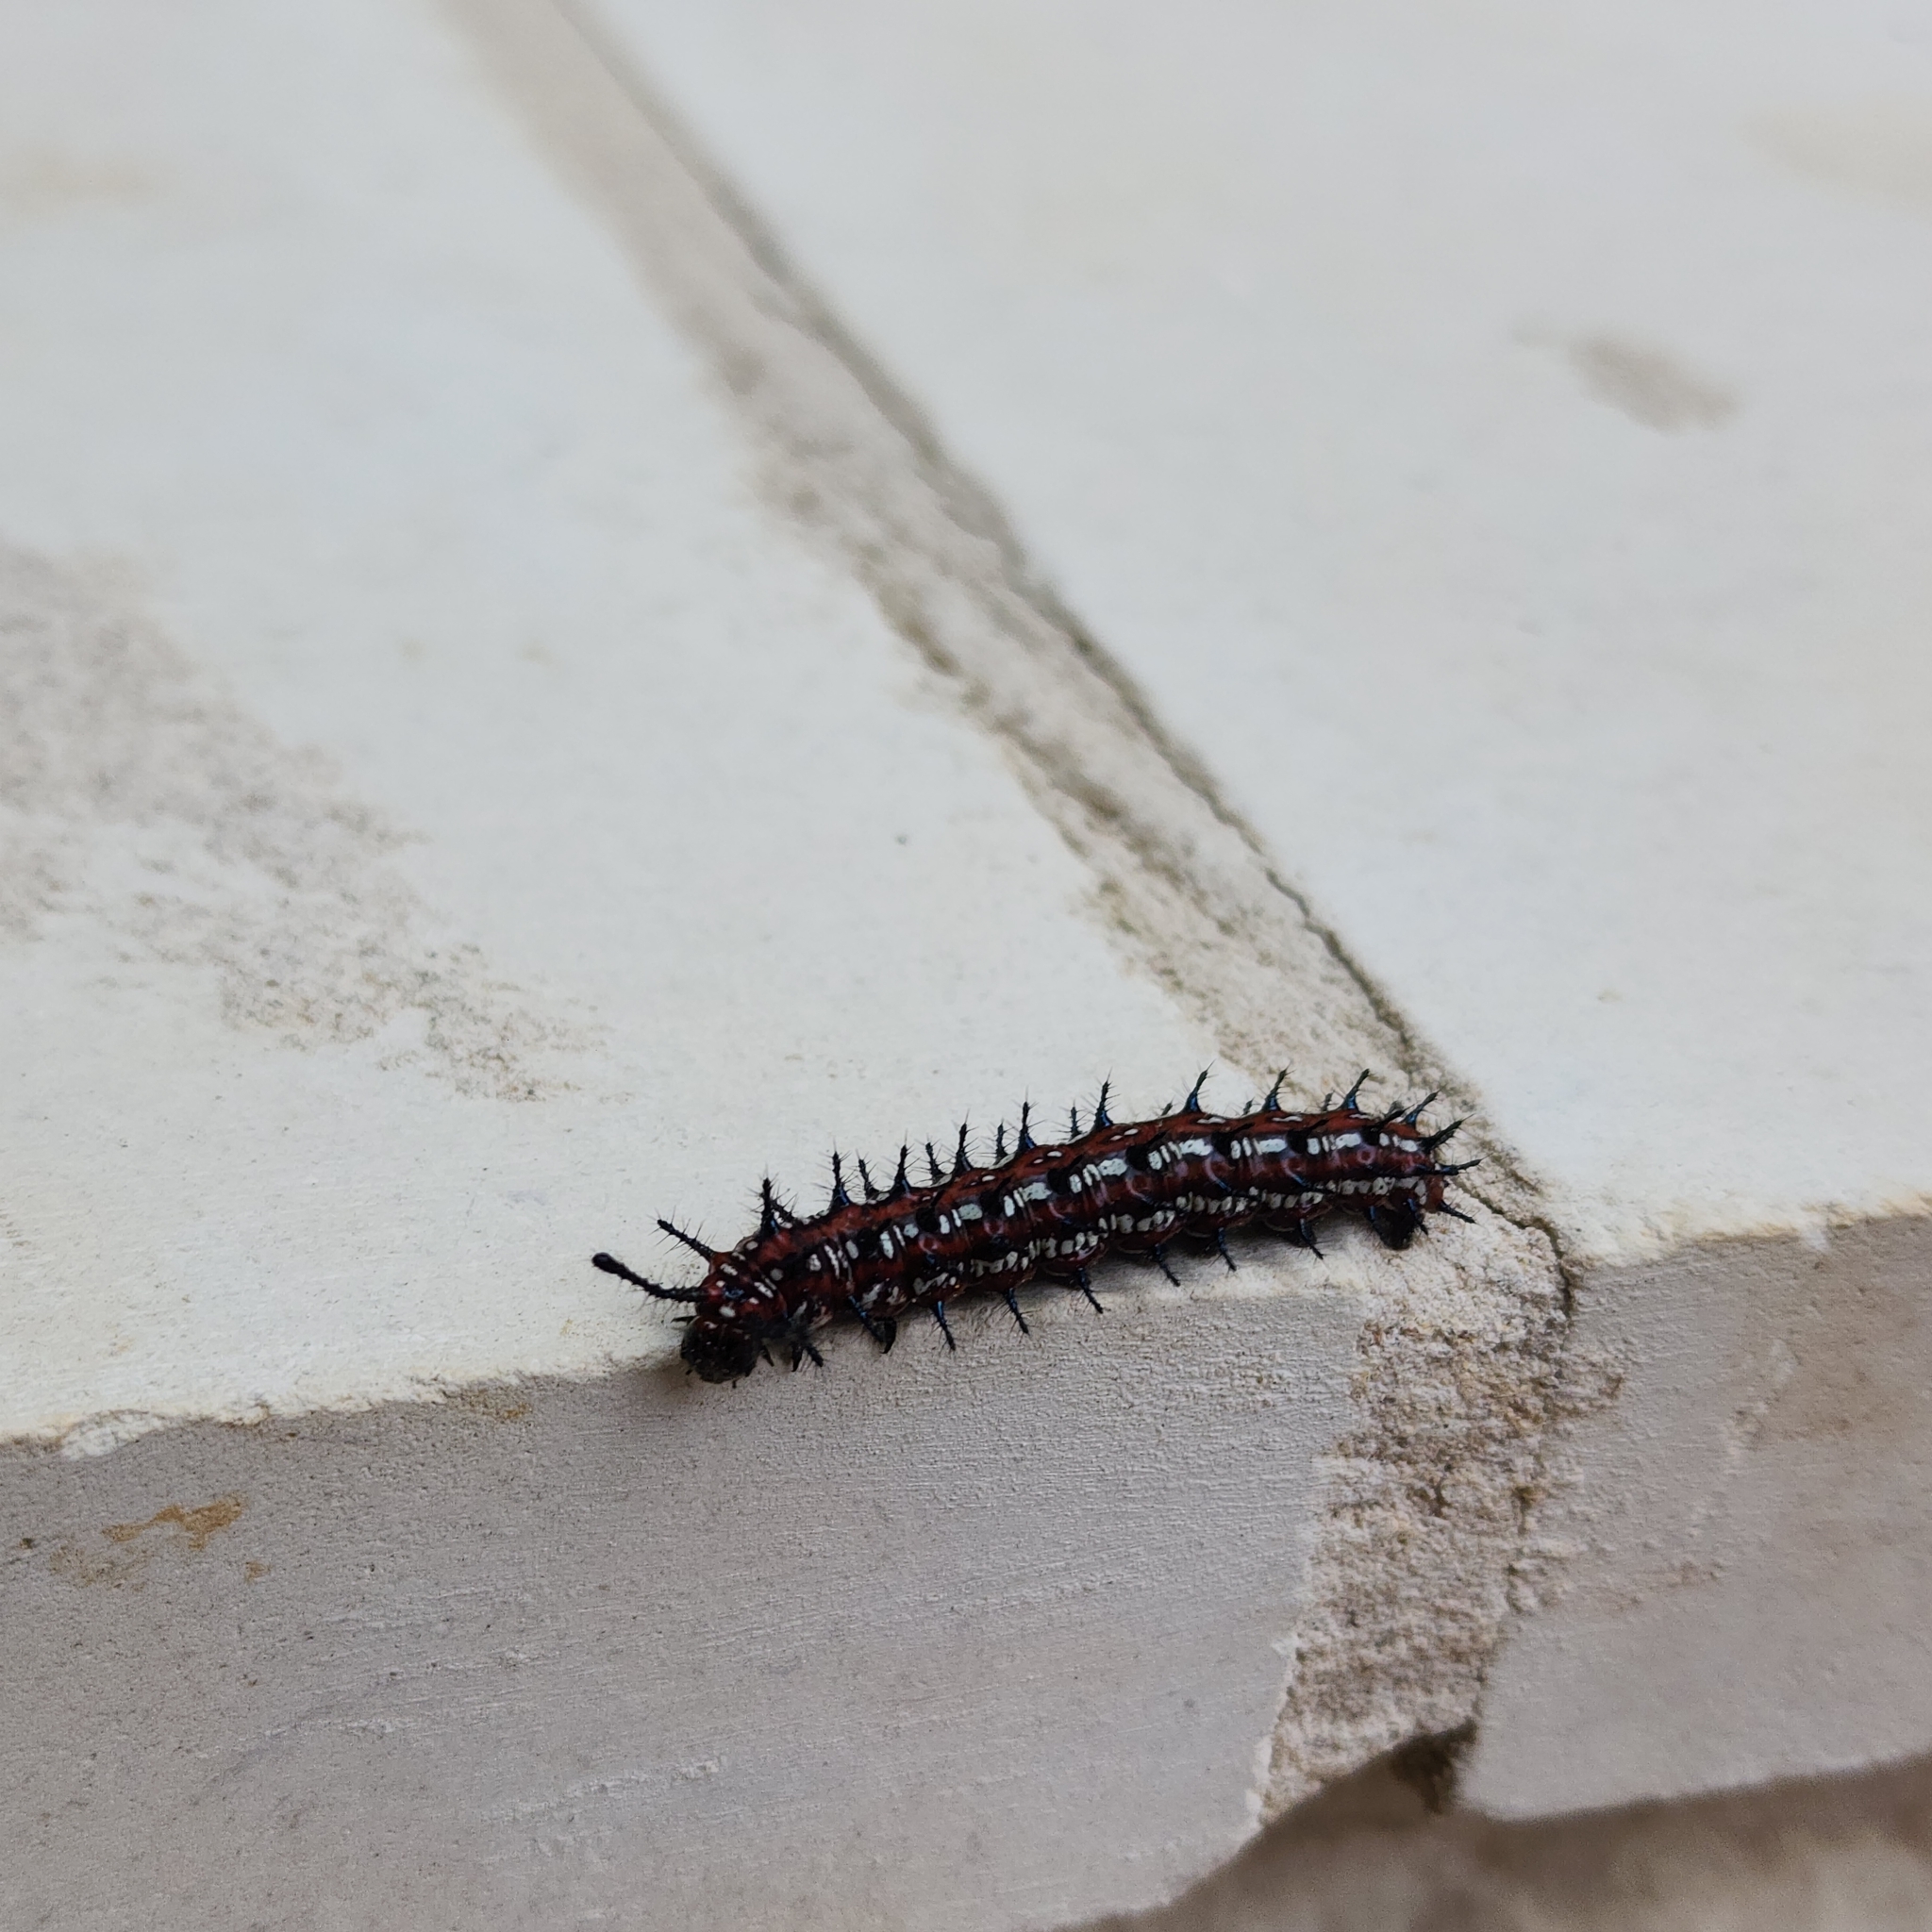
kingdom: Animalia
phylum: Arthropoda
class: Insecta
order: Lepidoptera
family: Nymphalidae
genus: Euptoieta
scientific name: Euptoieta claudia
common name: Variegated fritillary
